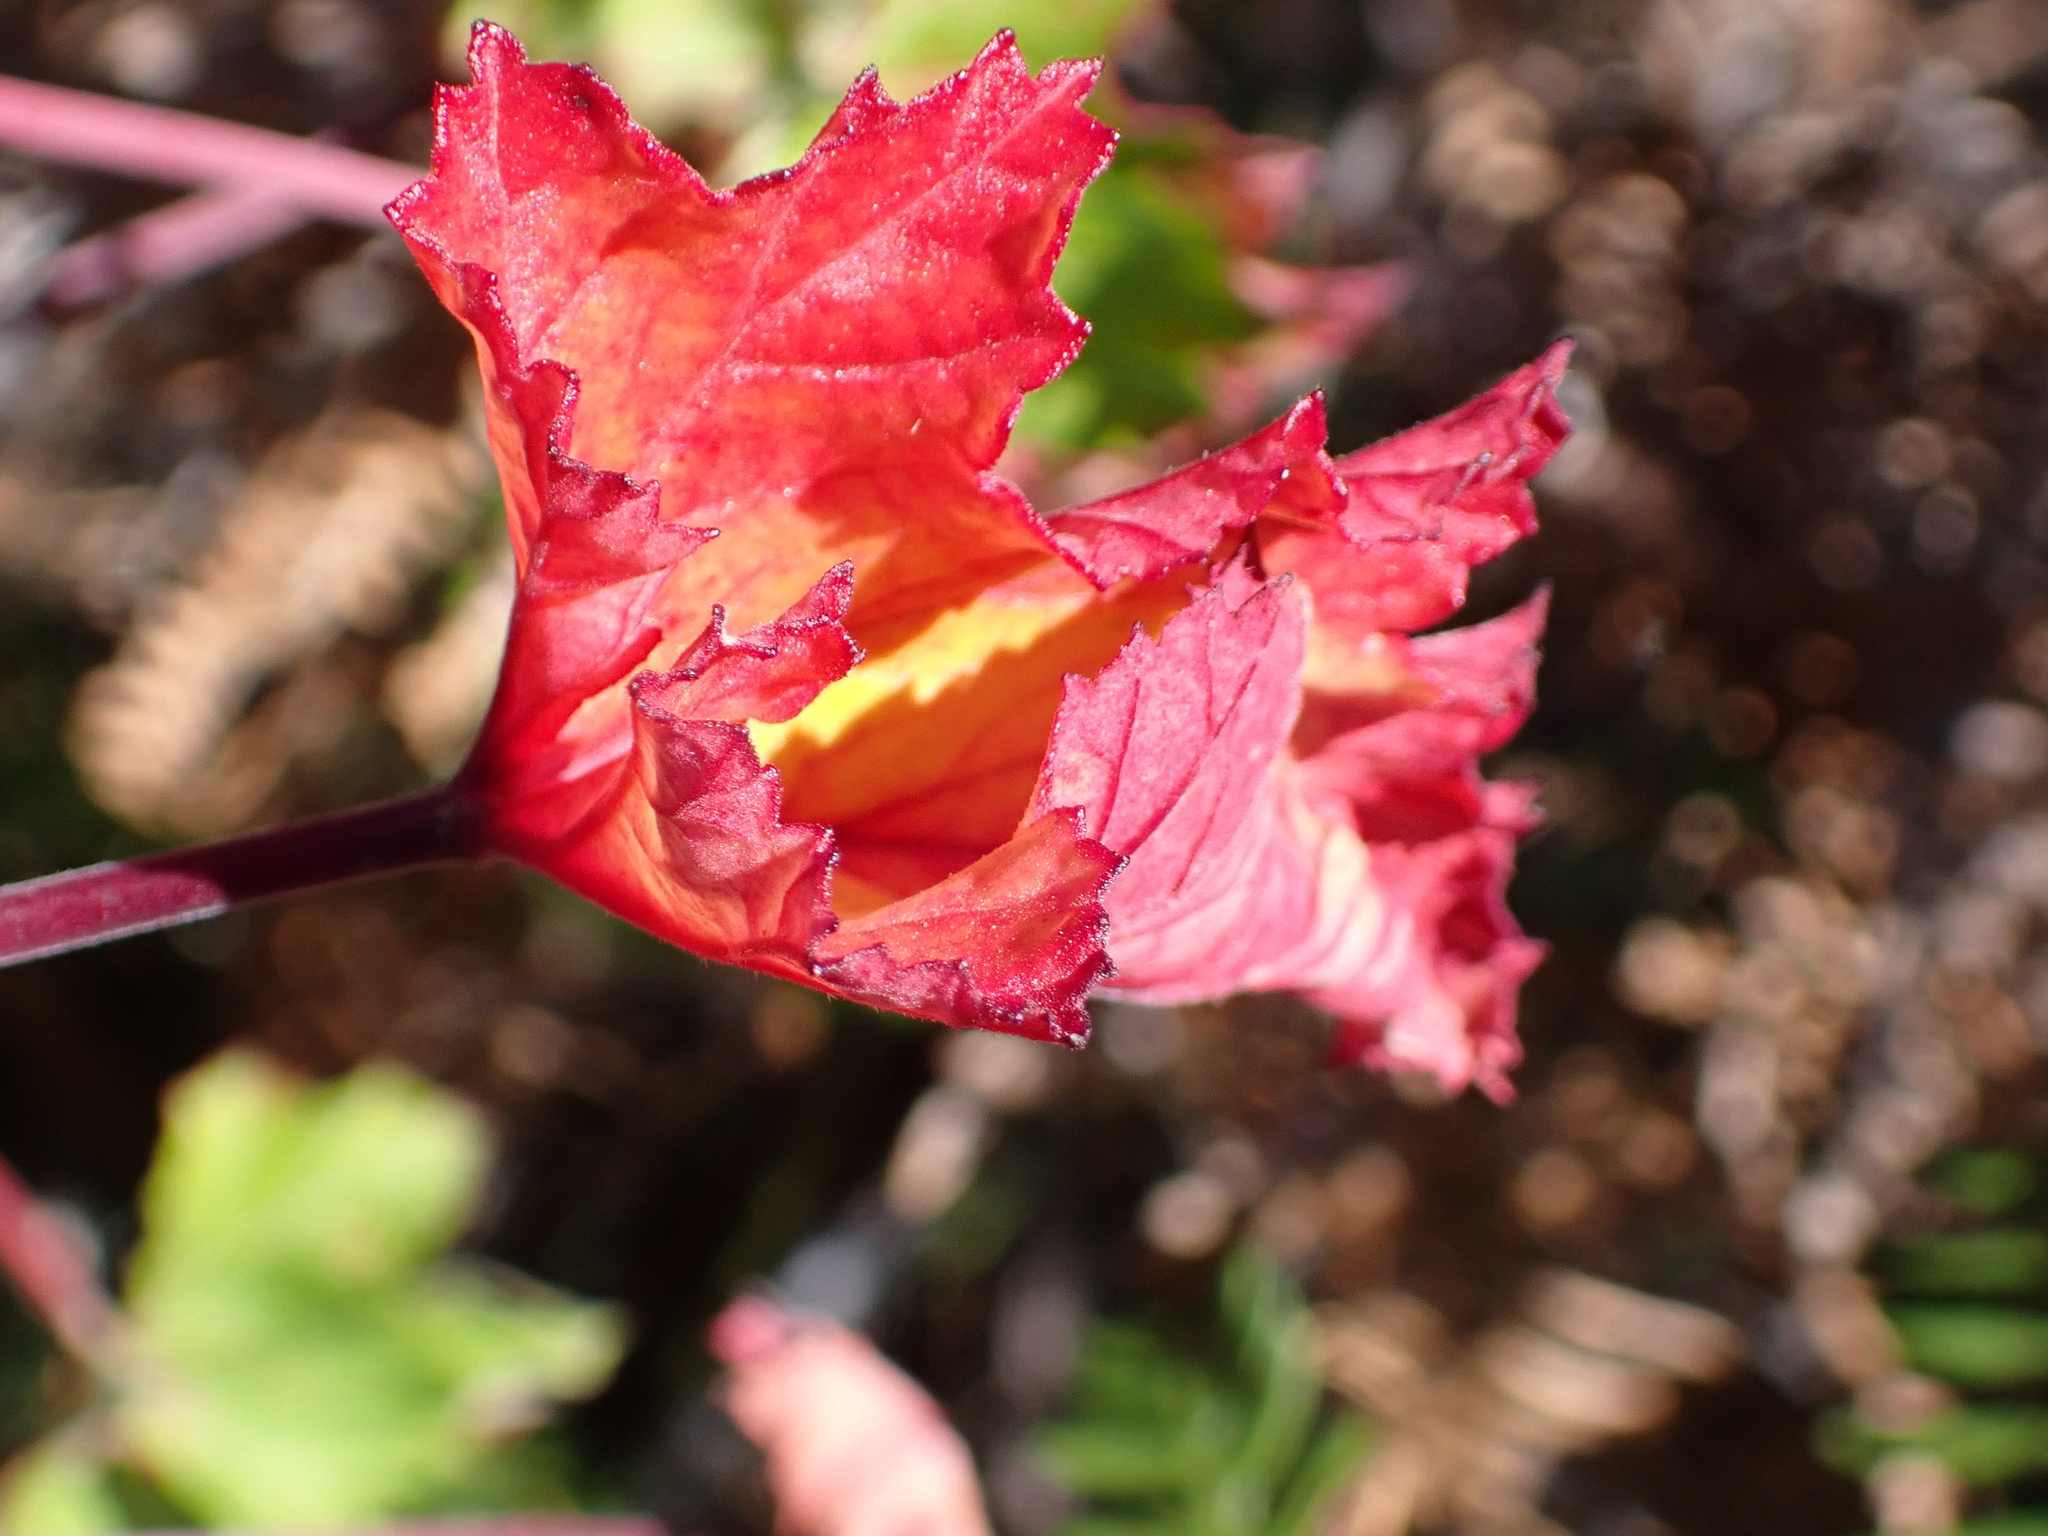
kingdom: Plantae
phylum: Tracheophyta
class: Magnoliopsida
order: Geraniales
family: Geraniaceae
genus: Pelargonium
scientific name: Pelargonium cordifolium
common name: Heart-leaf pelargonium
